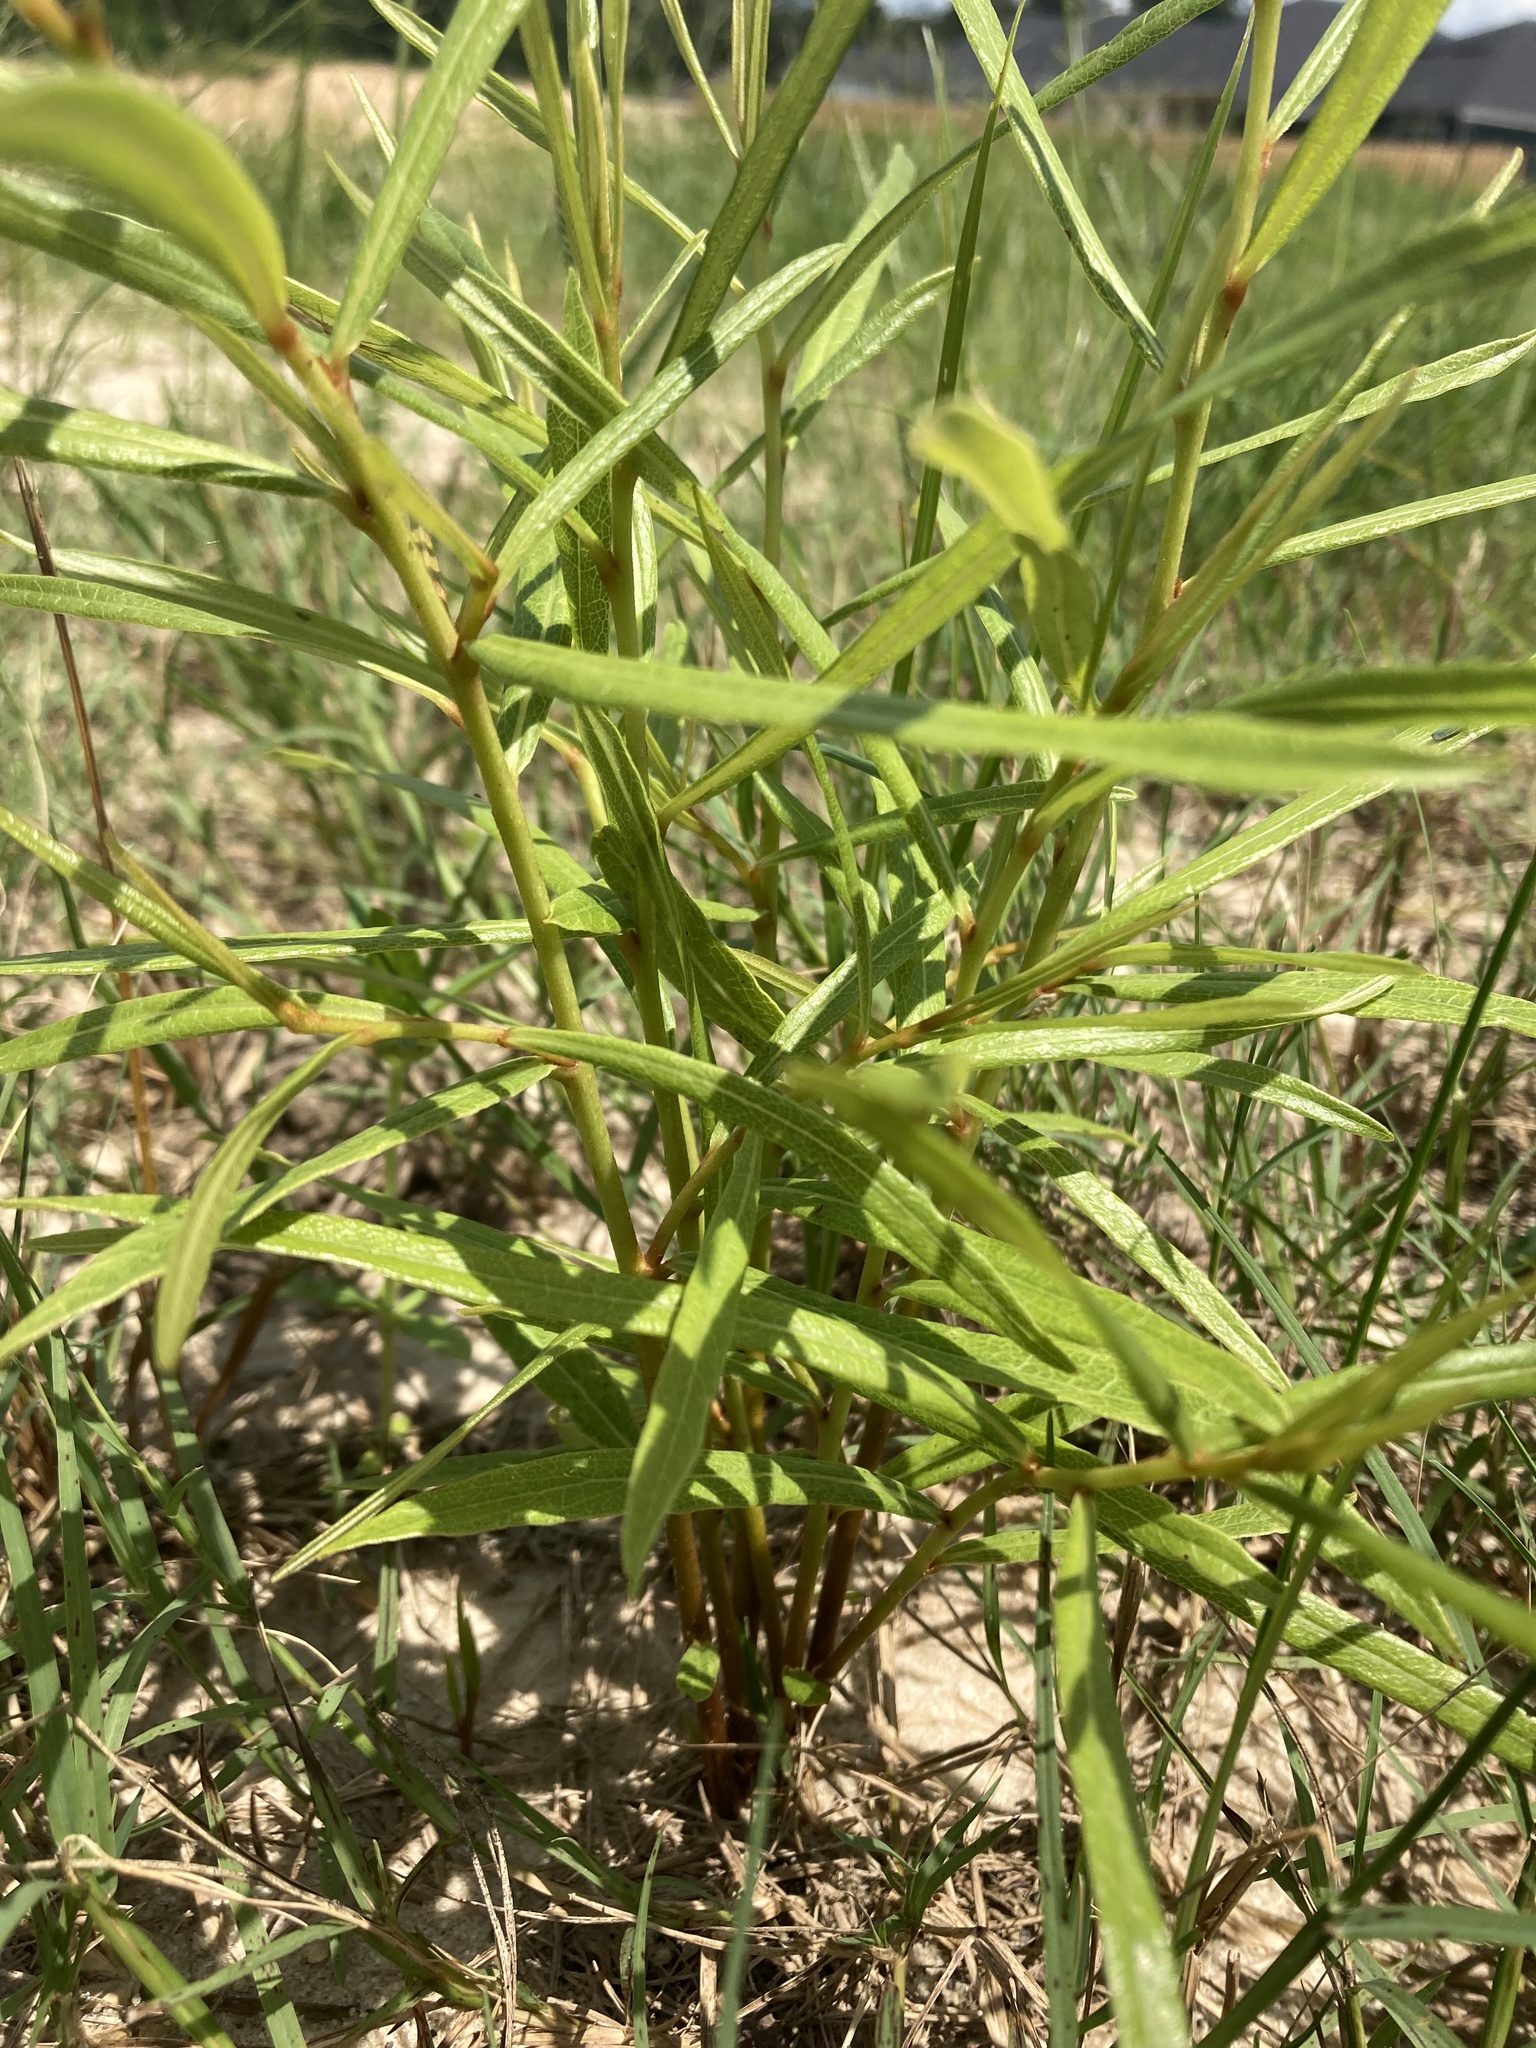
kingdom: Plantae
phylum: Tracheophyta
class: Magnoliopsida
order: Magnoliales
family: Annonaceae
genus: Asimina
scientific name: Asimina longifolia
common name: Polecatbush
